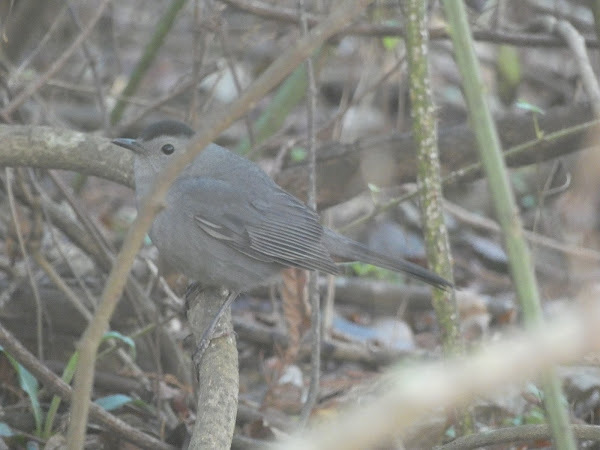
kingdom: Animalia
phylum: Chordata
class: Aves
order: Passeriformes
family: Mimidae
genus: Dumetella
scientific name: Dumetella carolinensis
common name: Gray catbird
